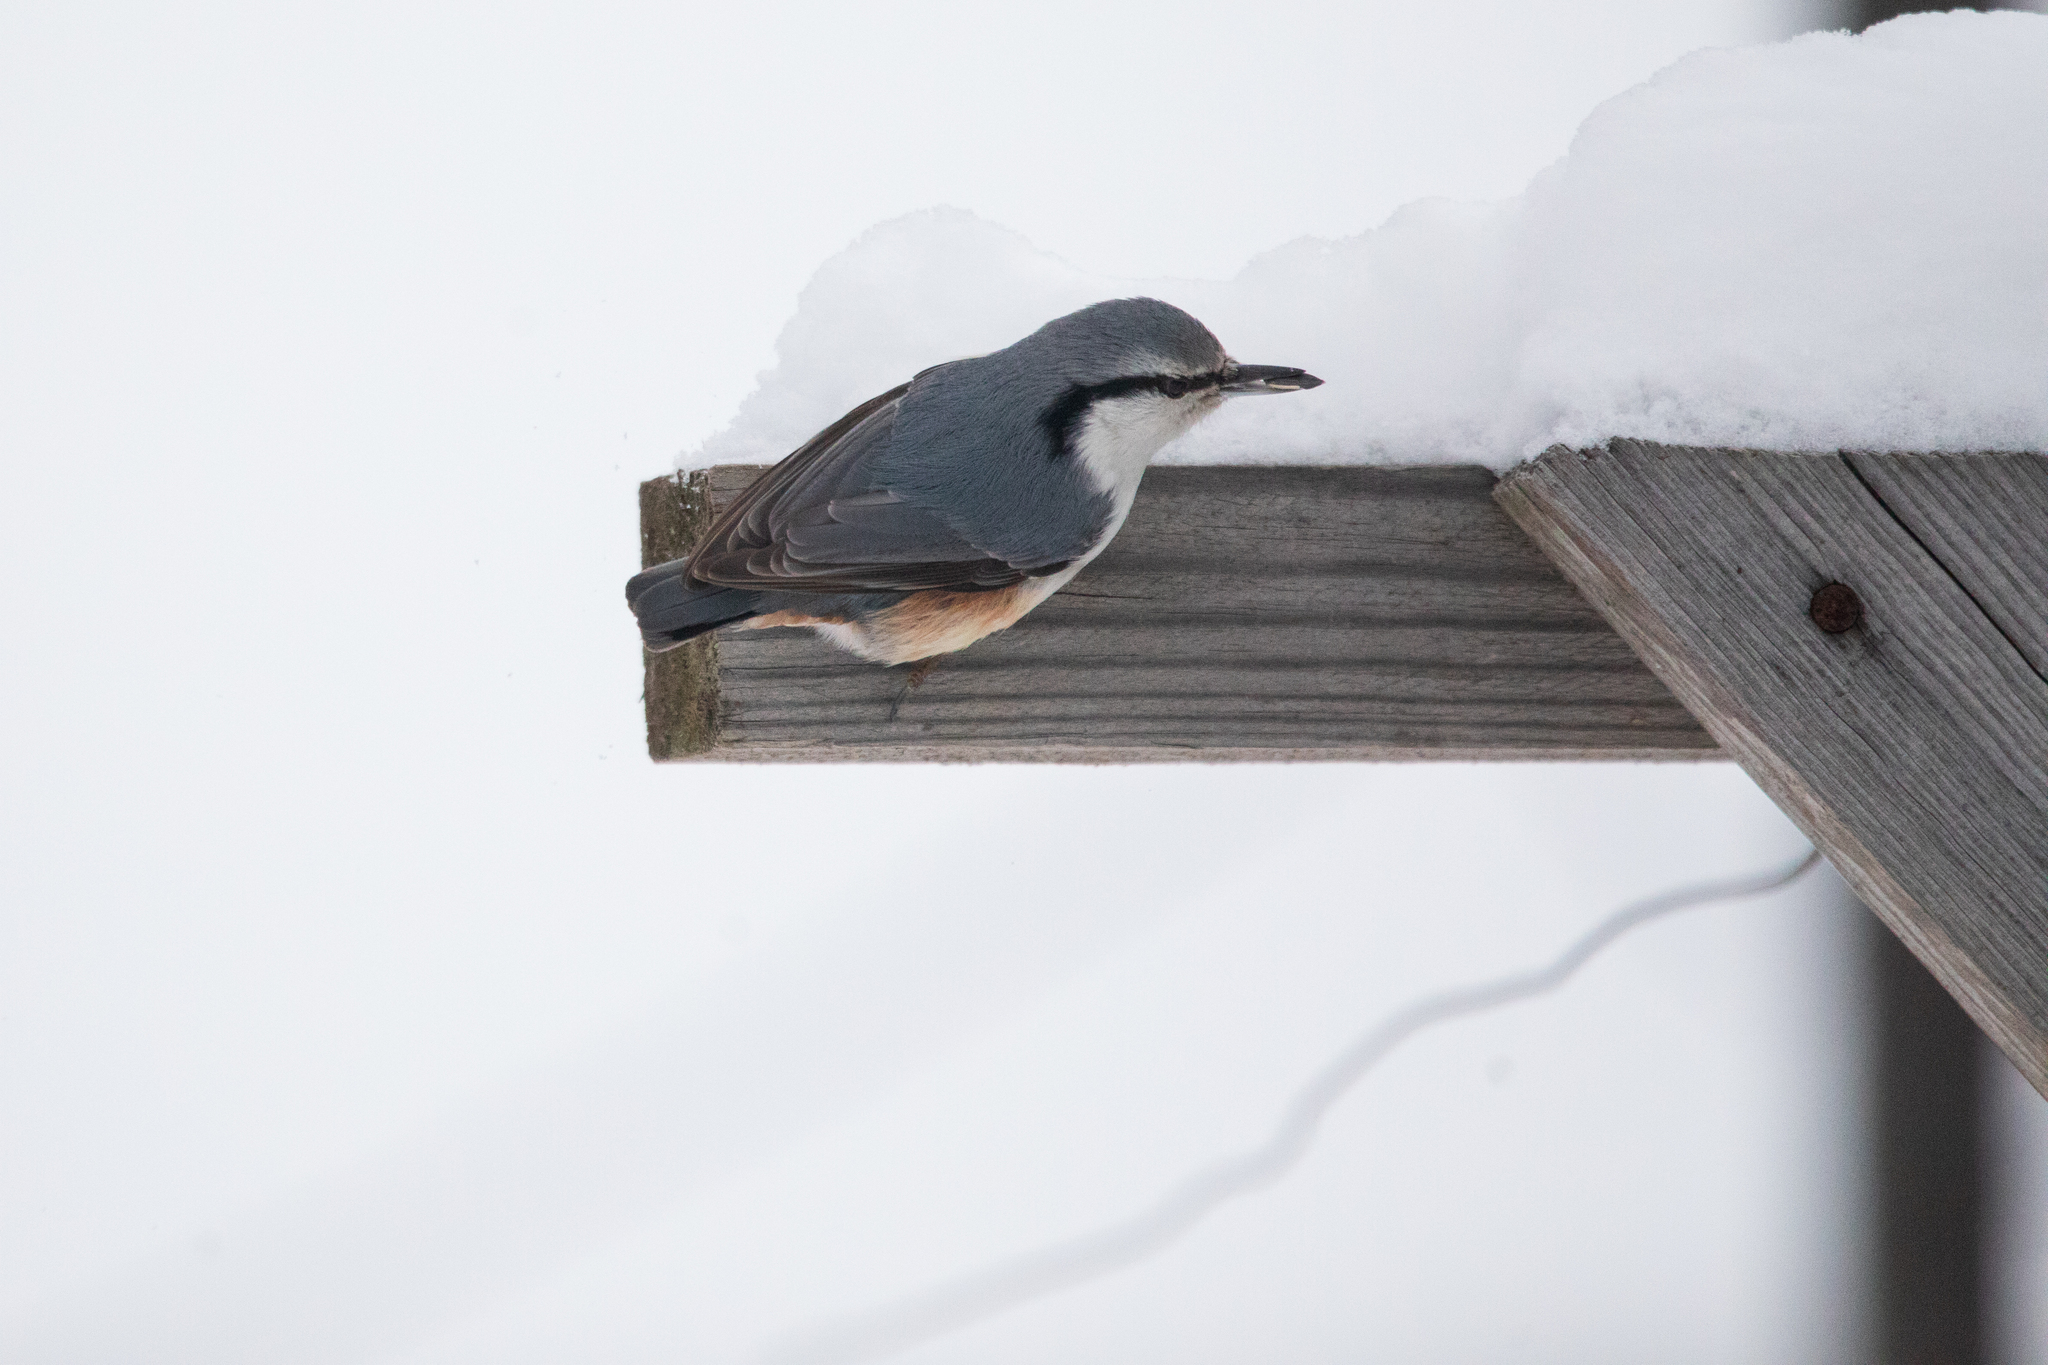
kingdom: Animalia
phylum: Chordata
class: Aves
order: Passeriformes
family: Sittidae
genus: Sitta
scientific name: Sitta europaea
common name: Eurasian nuthatch
